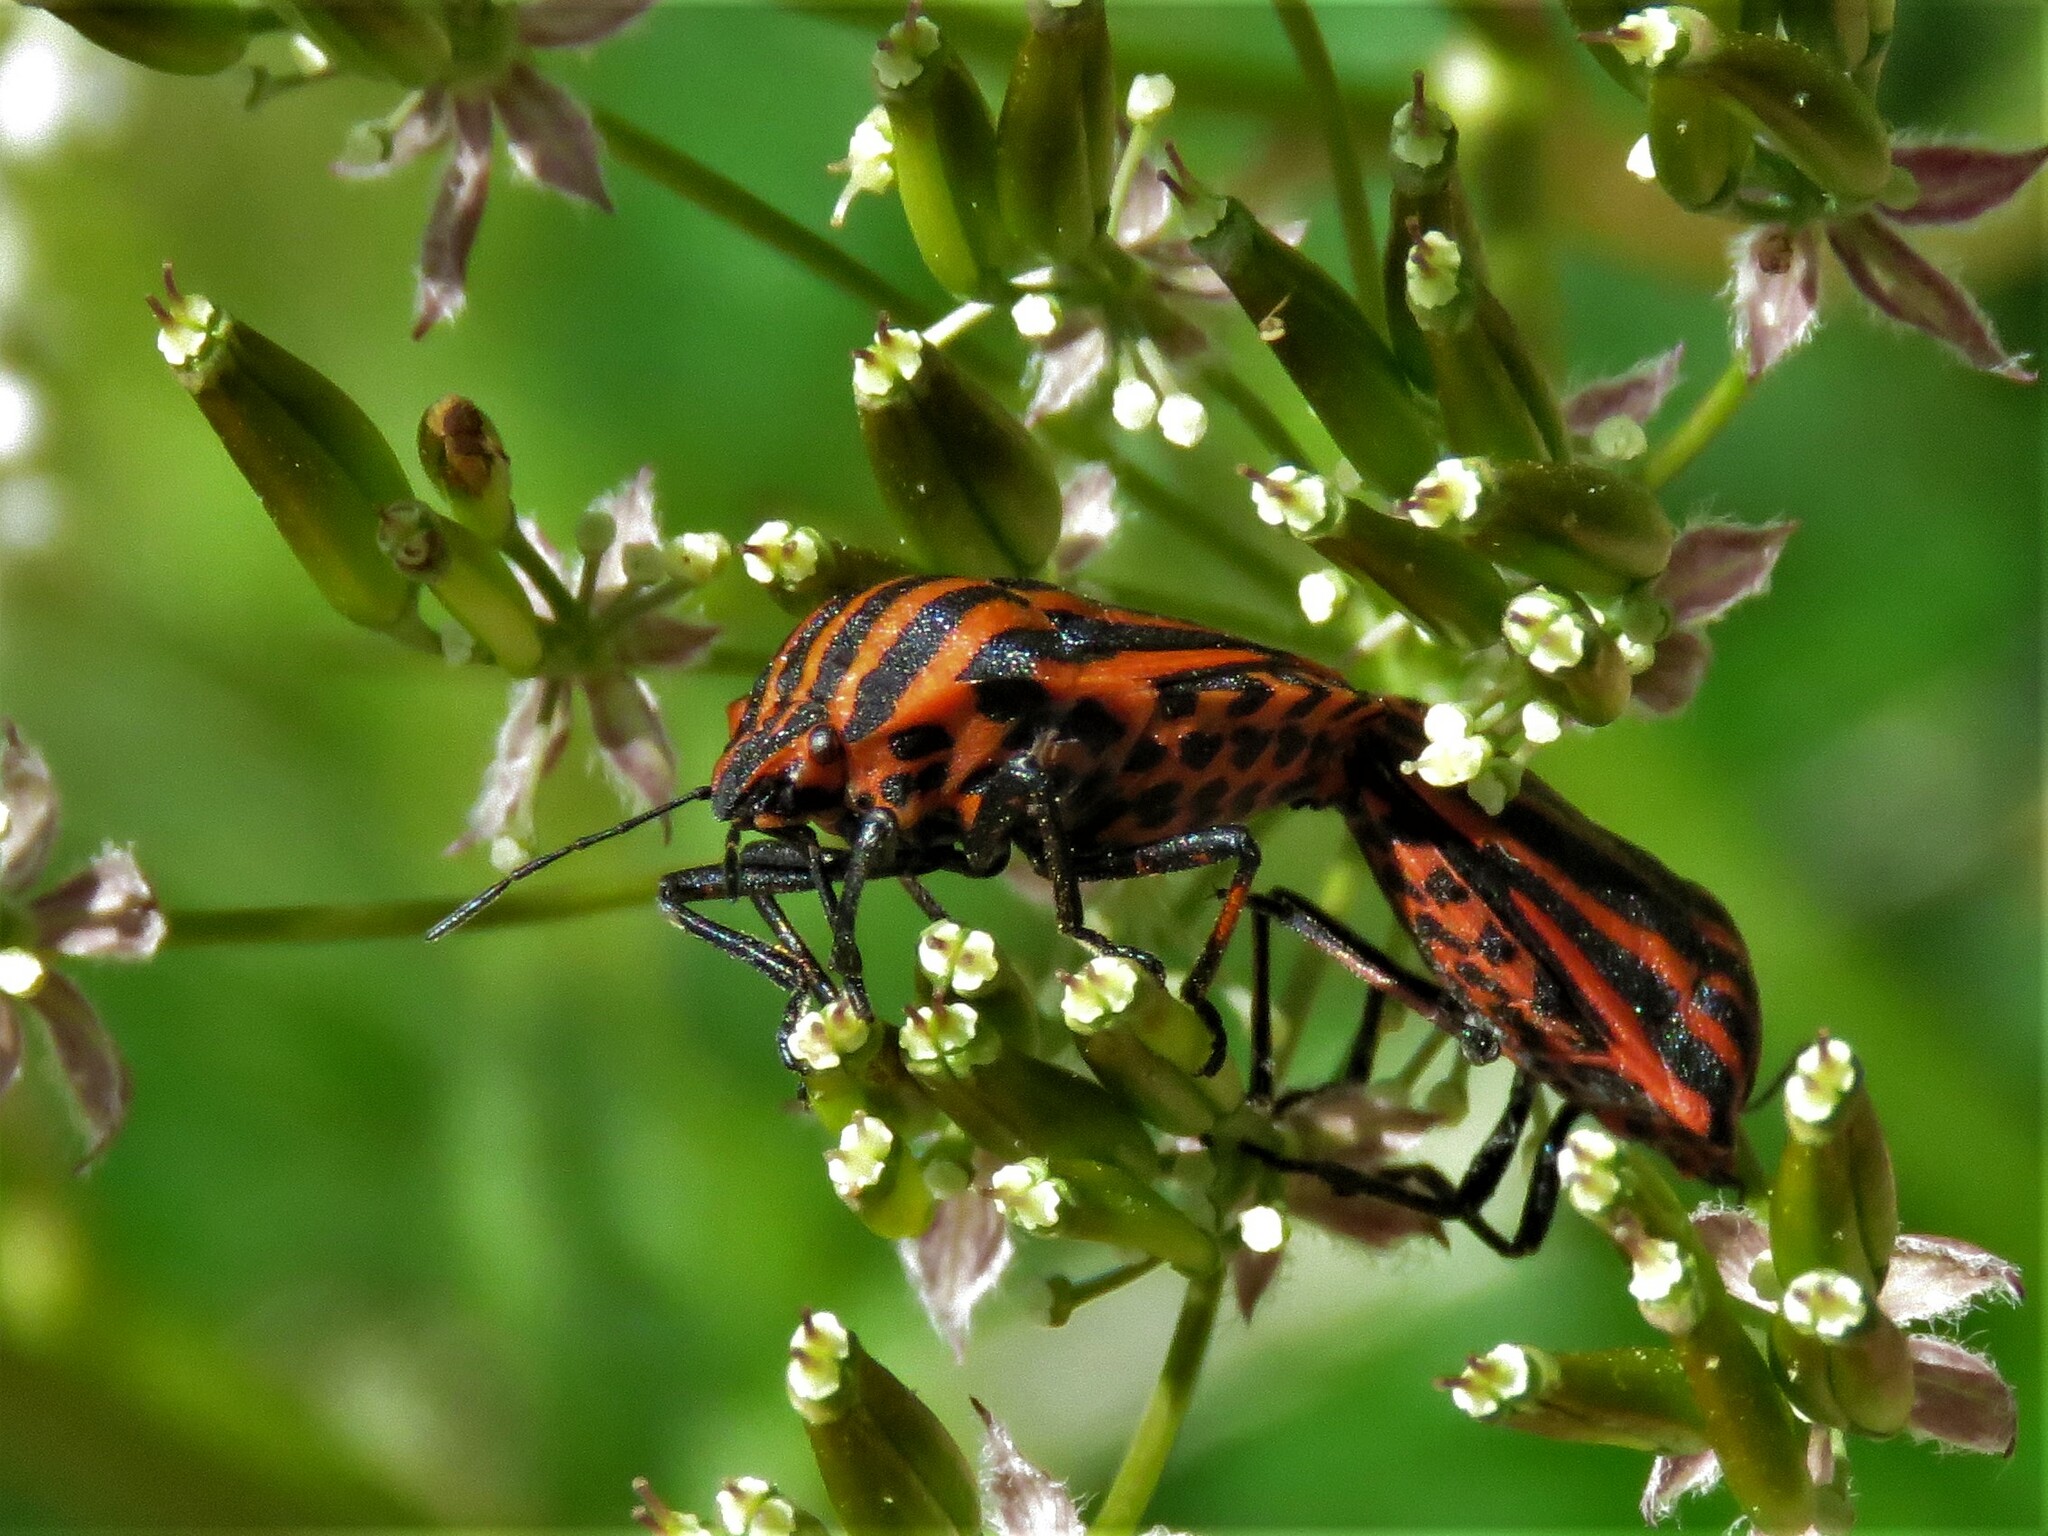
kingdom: Animalia
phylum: Arthropoda
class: Insecta
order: Hemiptera
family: Pentatomidae
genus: Graphosoma
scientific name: Graphosoma italicum
